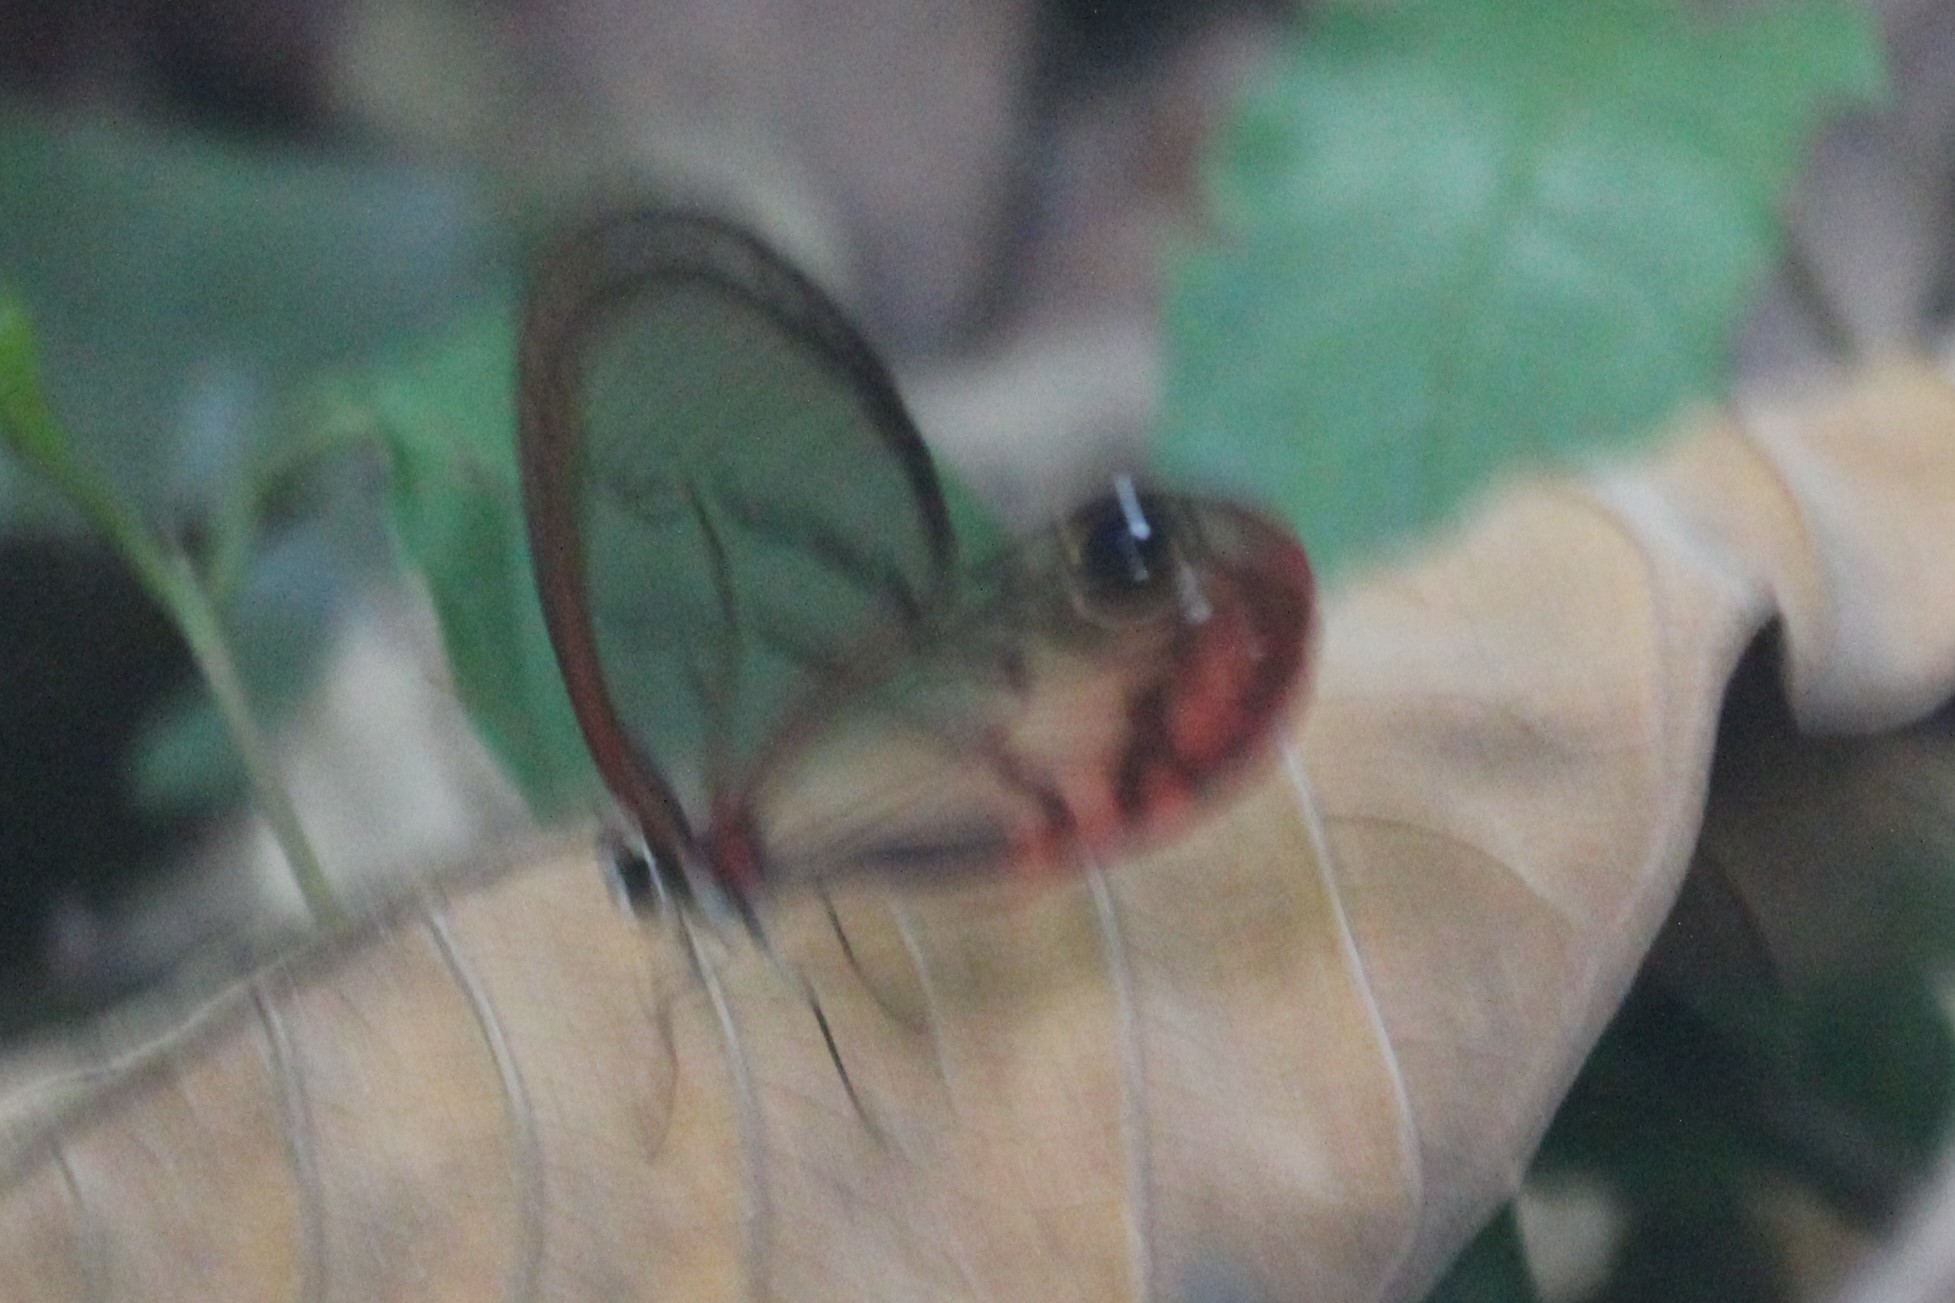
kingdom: Animalia
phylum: Arthropoda
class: Insecta
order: Lepidoptera
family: Nymphalidae
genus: Cithaerias
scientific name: Cithaerias pireta
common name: Rusted clearwing-satyr
